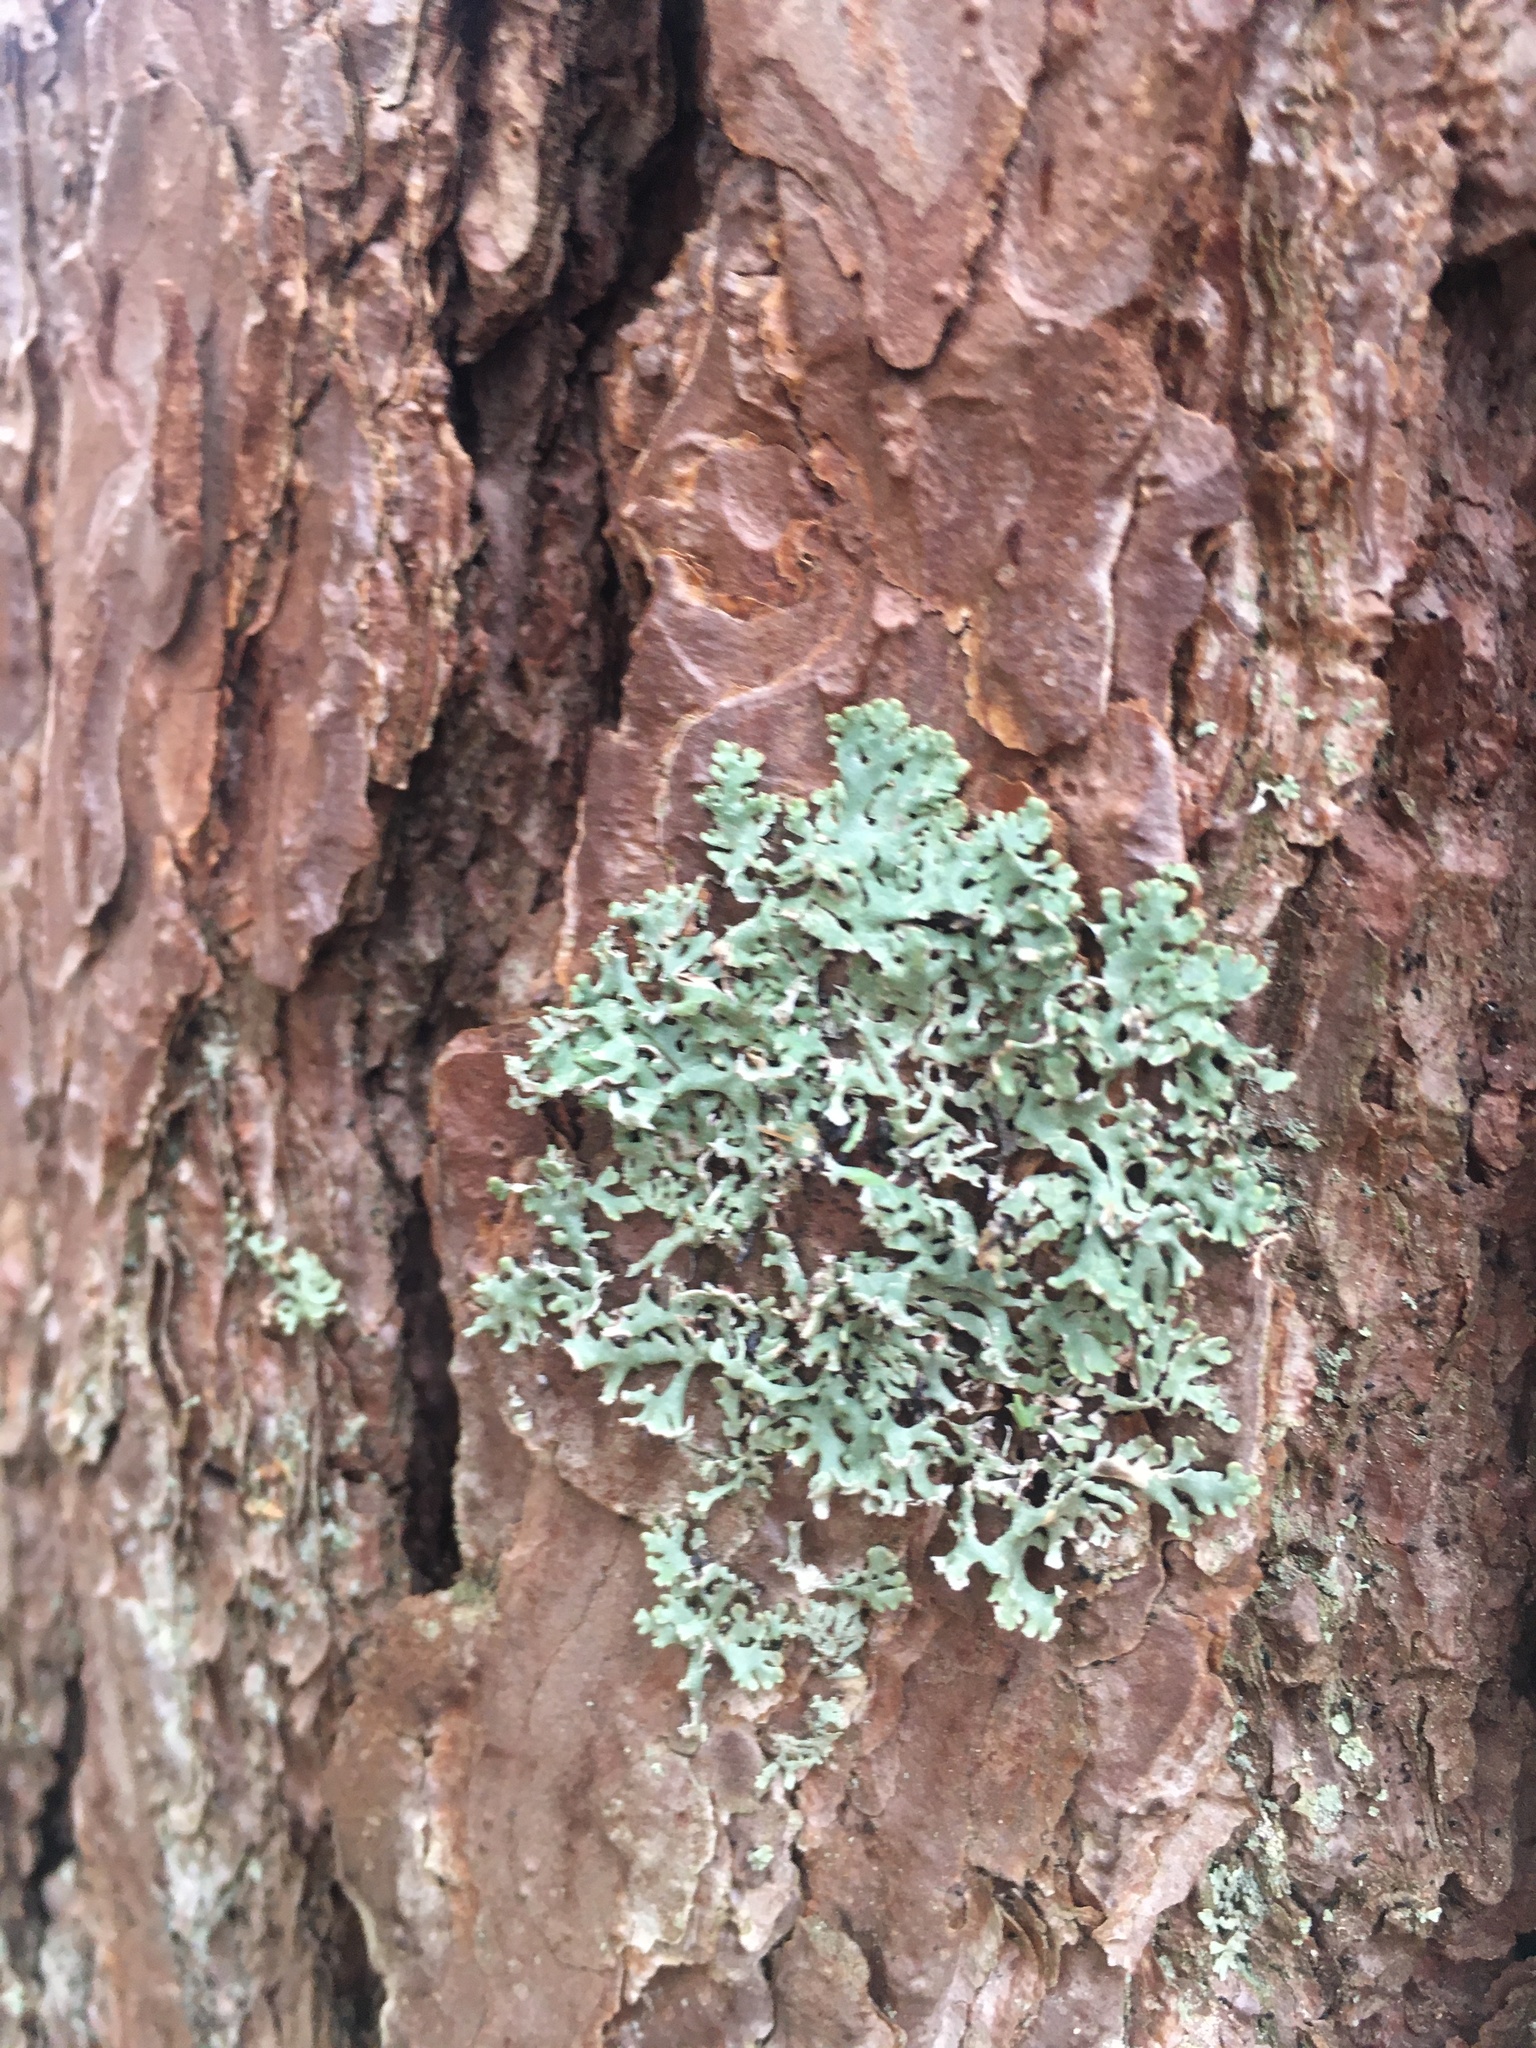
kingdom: Fungi
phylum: Ascomycota
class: Lecanoromycetes
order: Lecanorales
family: Parmeliaceae
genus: Hypogymnia
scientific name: Hypogymnia physodes
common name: Dark crottle
